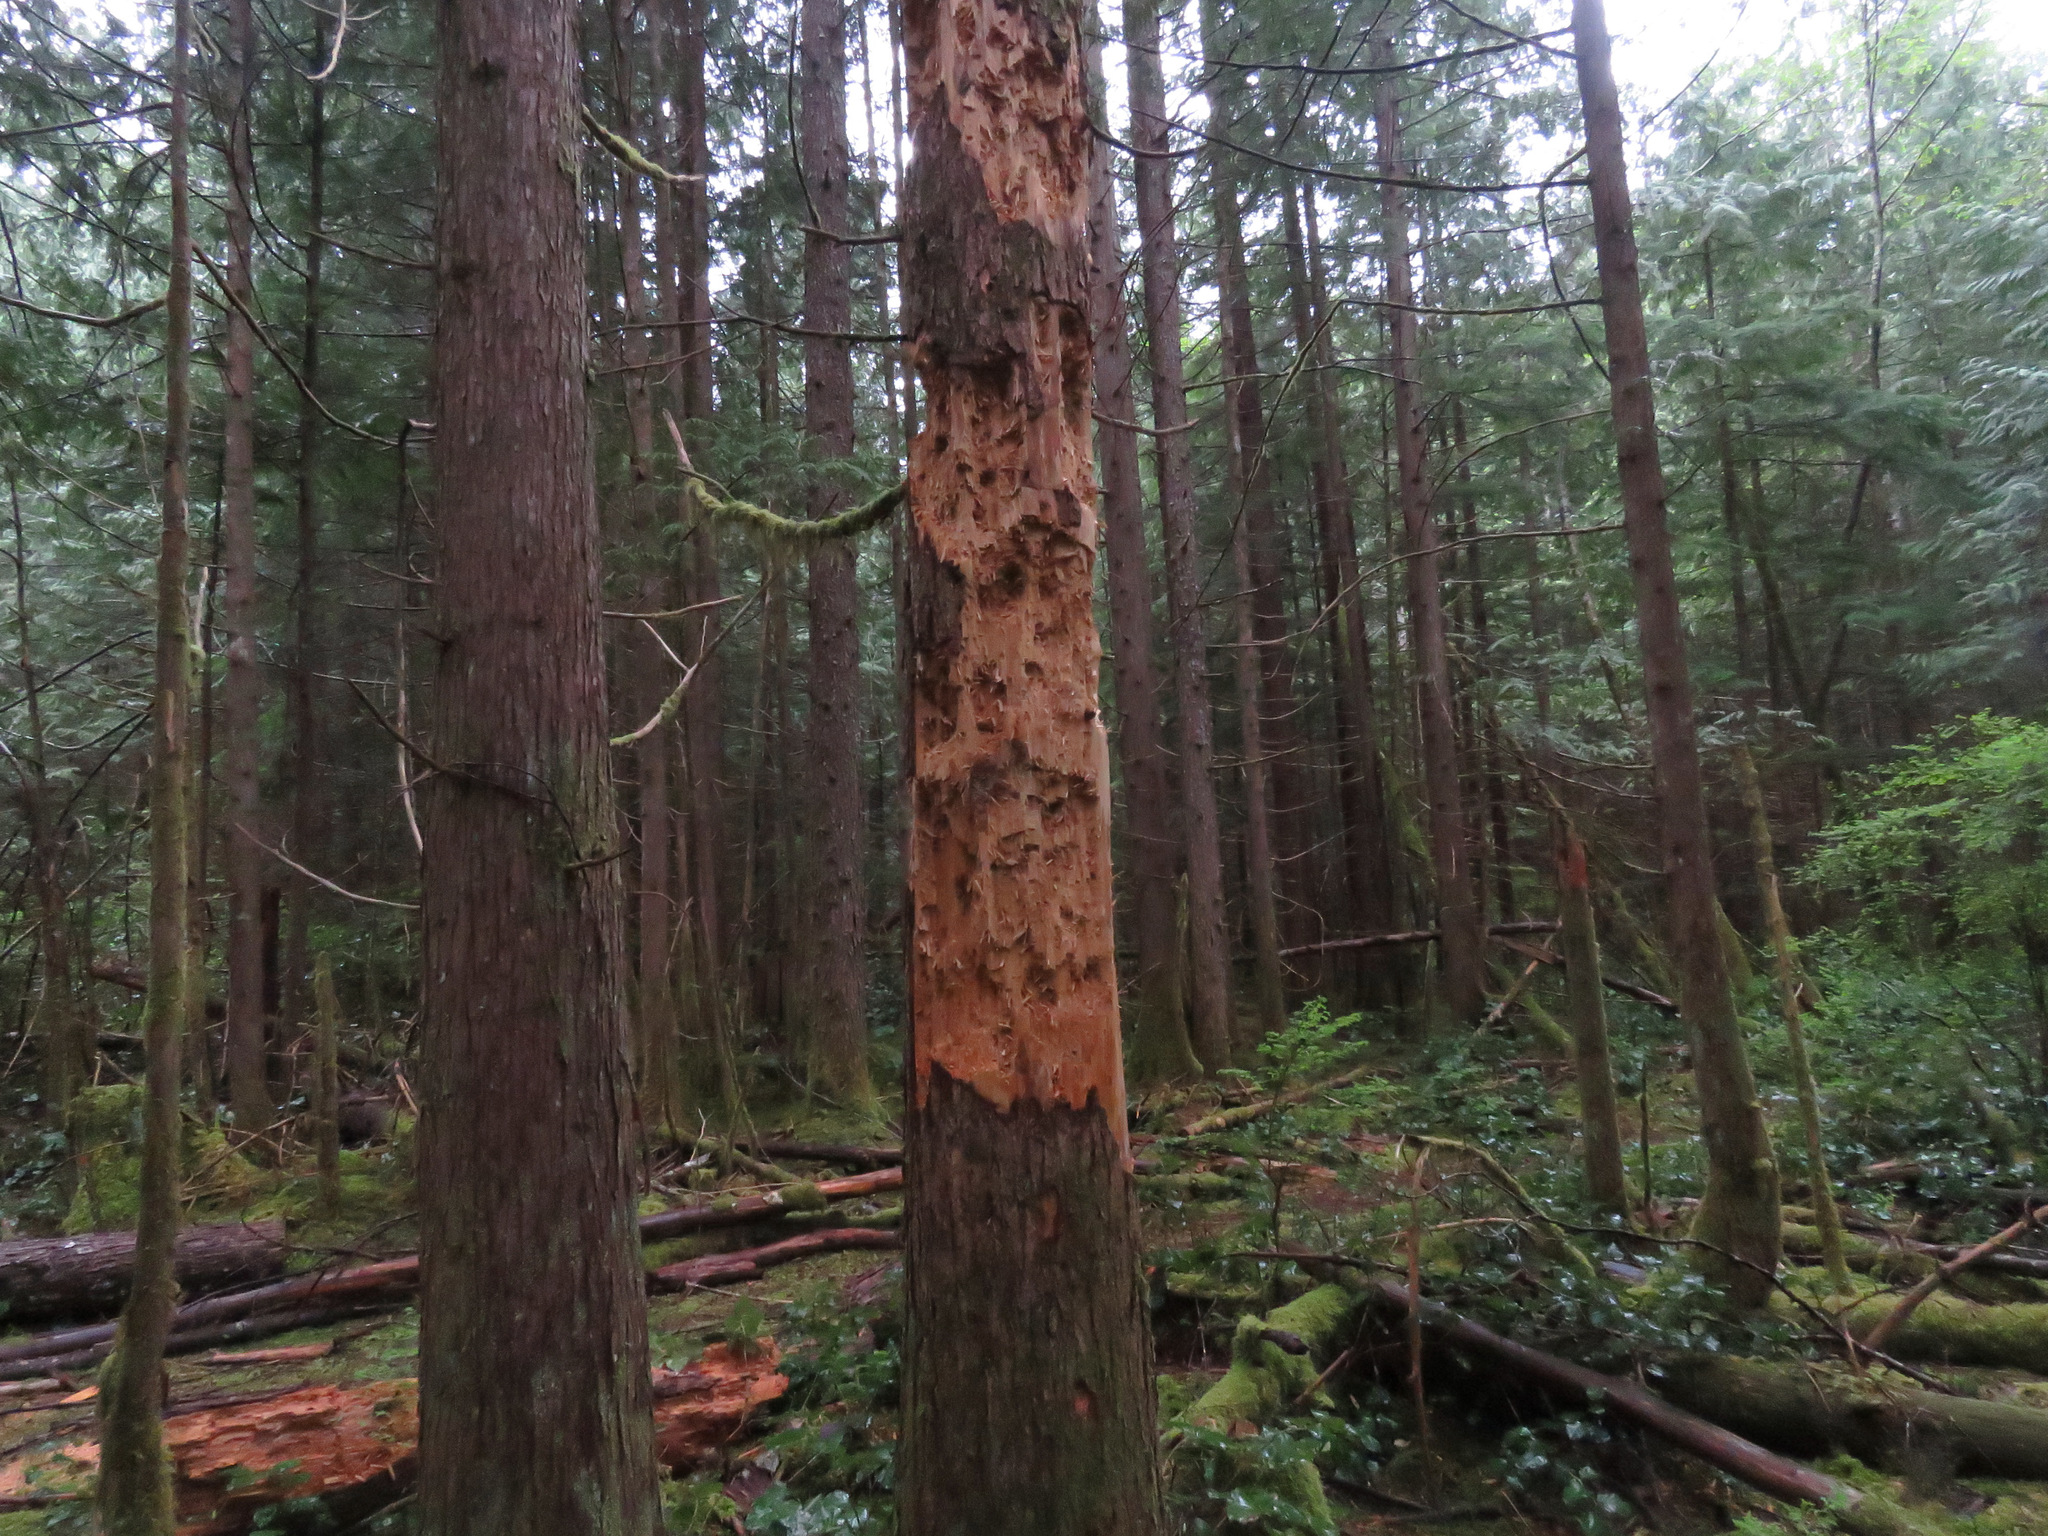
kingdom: Animalia
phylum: Chordata
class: Aves
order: Piciformes
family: Picidae
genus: Dryocopus
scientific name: Dryocopus pileatus
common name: Pileated woodpecker
